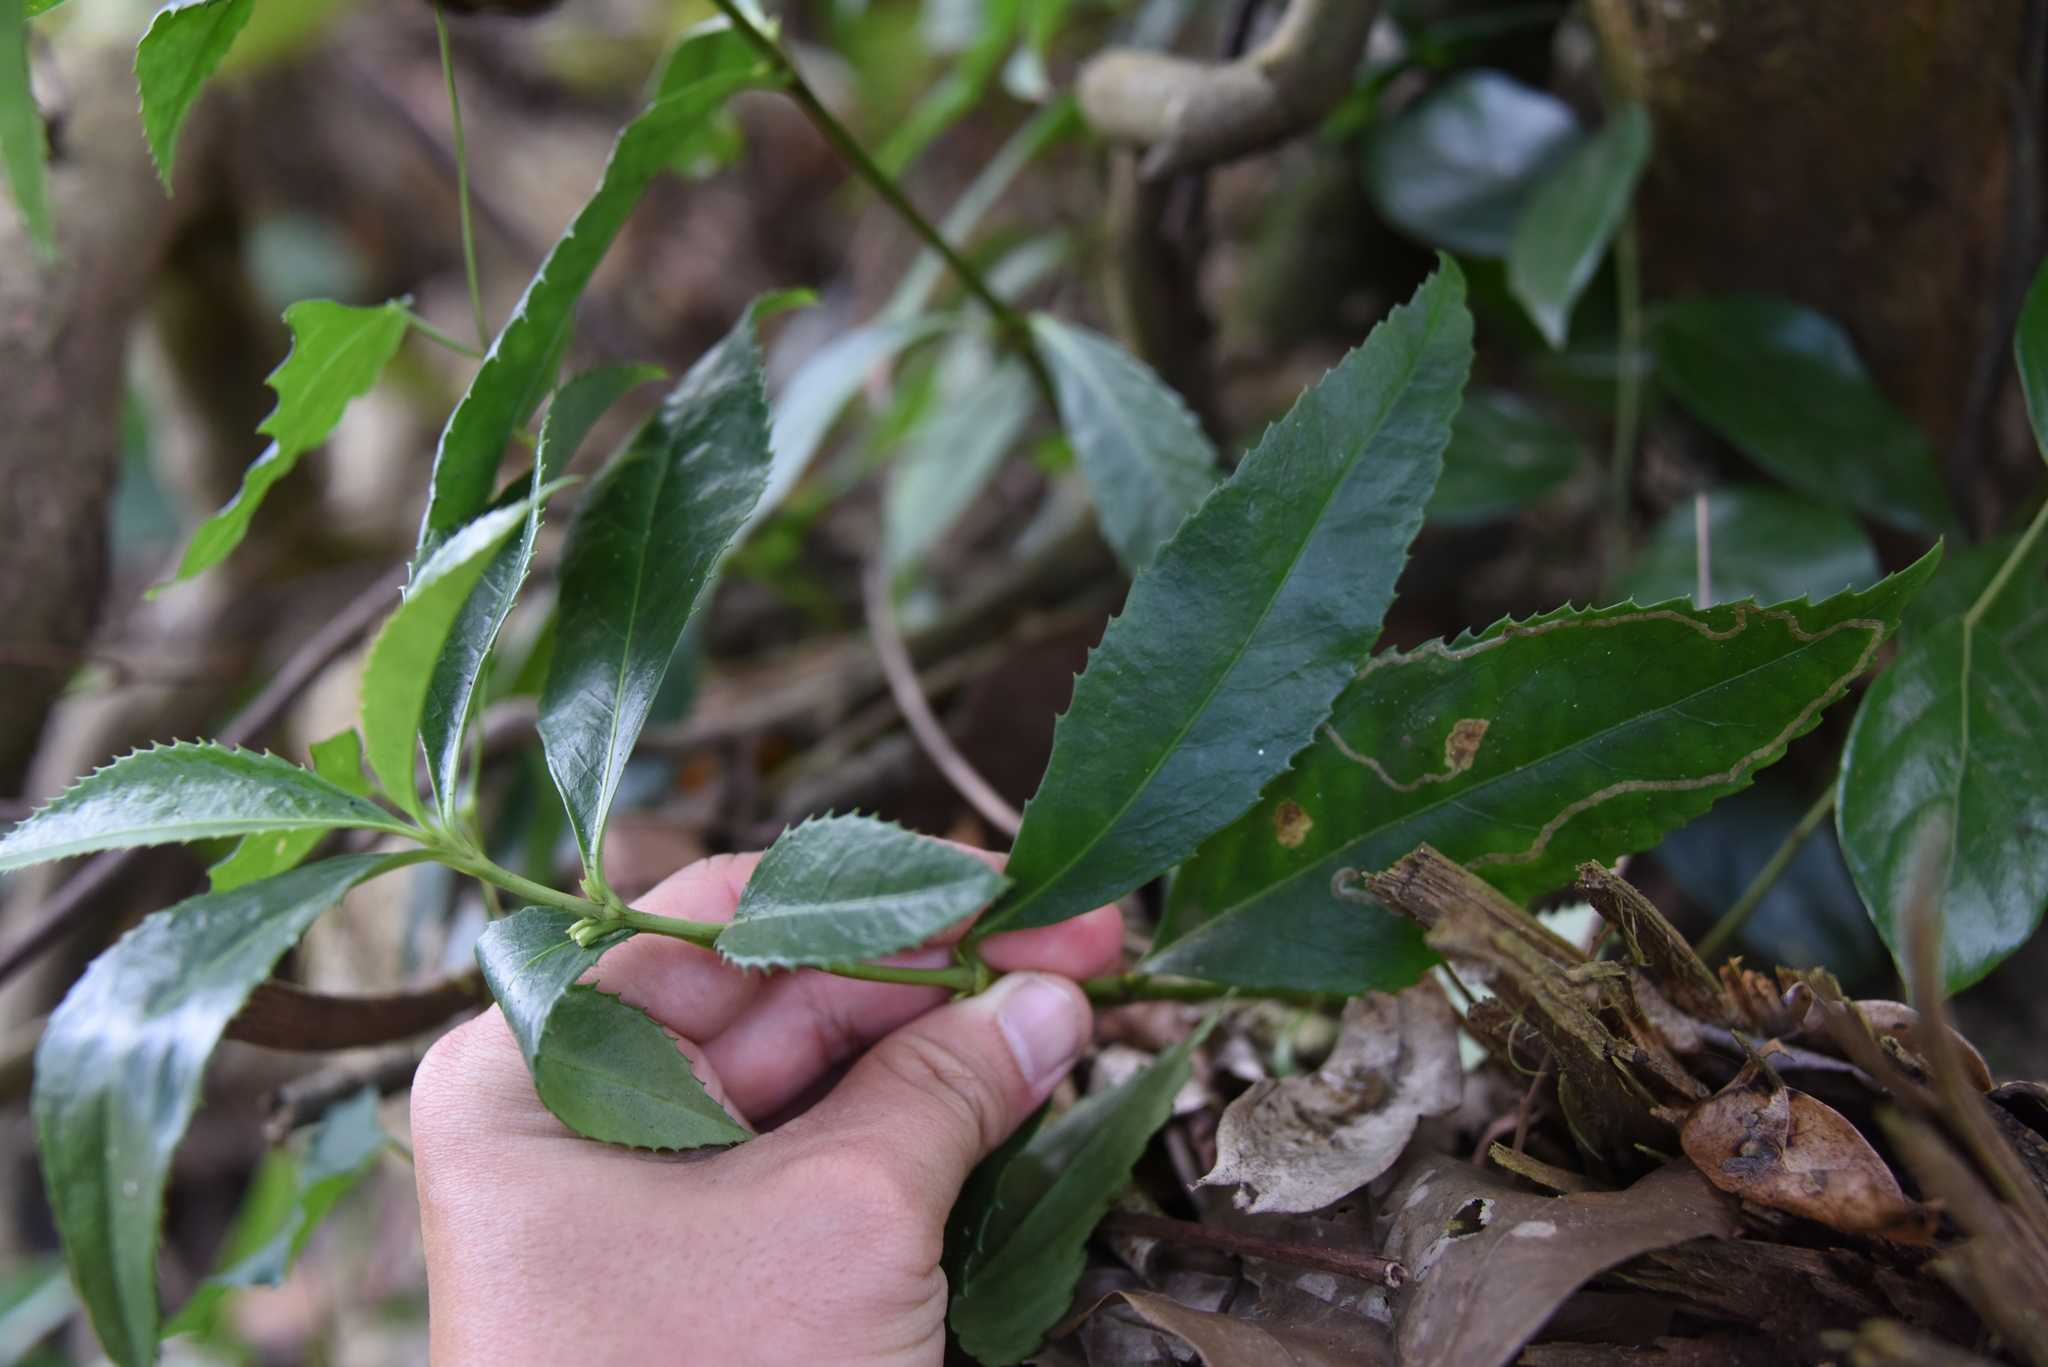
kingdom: Plantae
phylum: Tracheophyta
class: Magnoliopsida
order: Chloranthales
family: Chloranthaceae
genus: Sarcandra
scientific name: Sarcandra glabra
